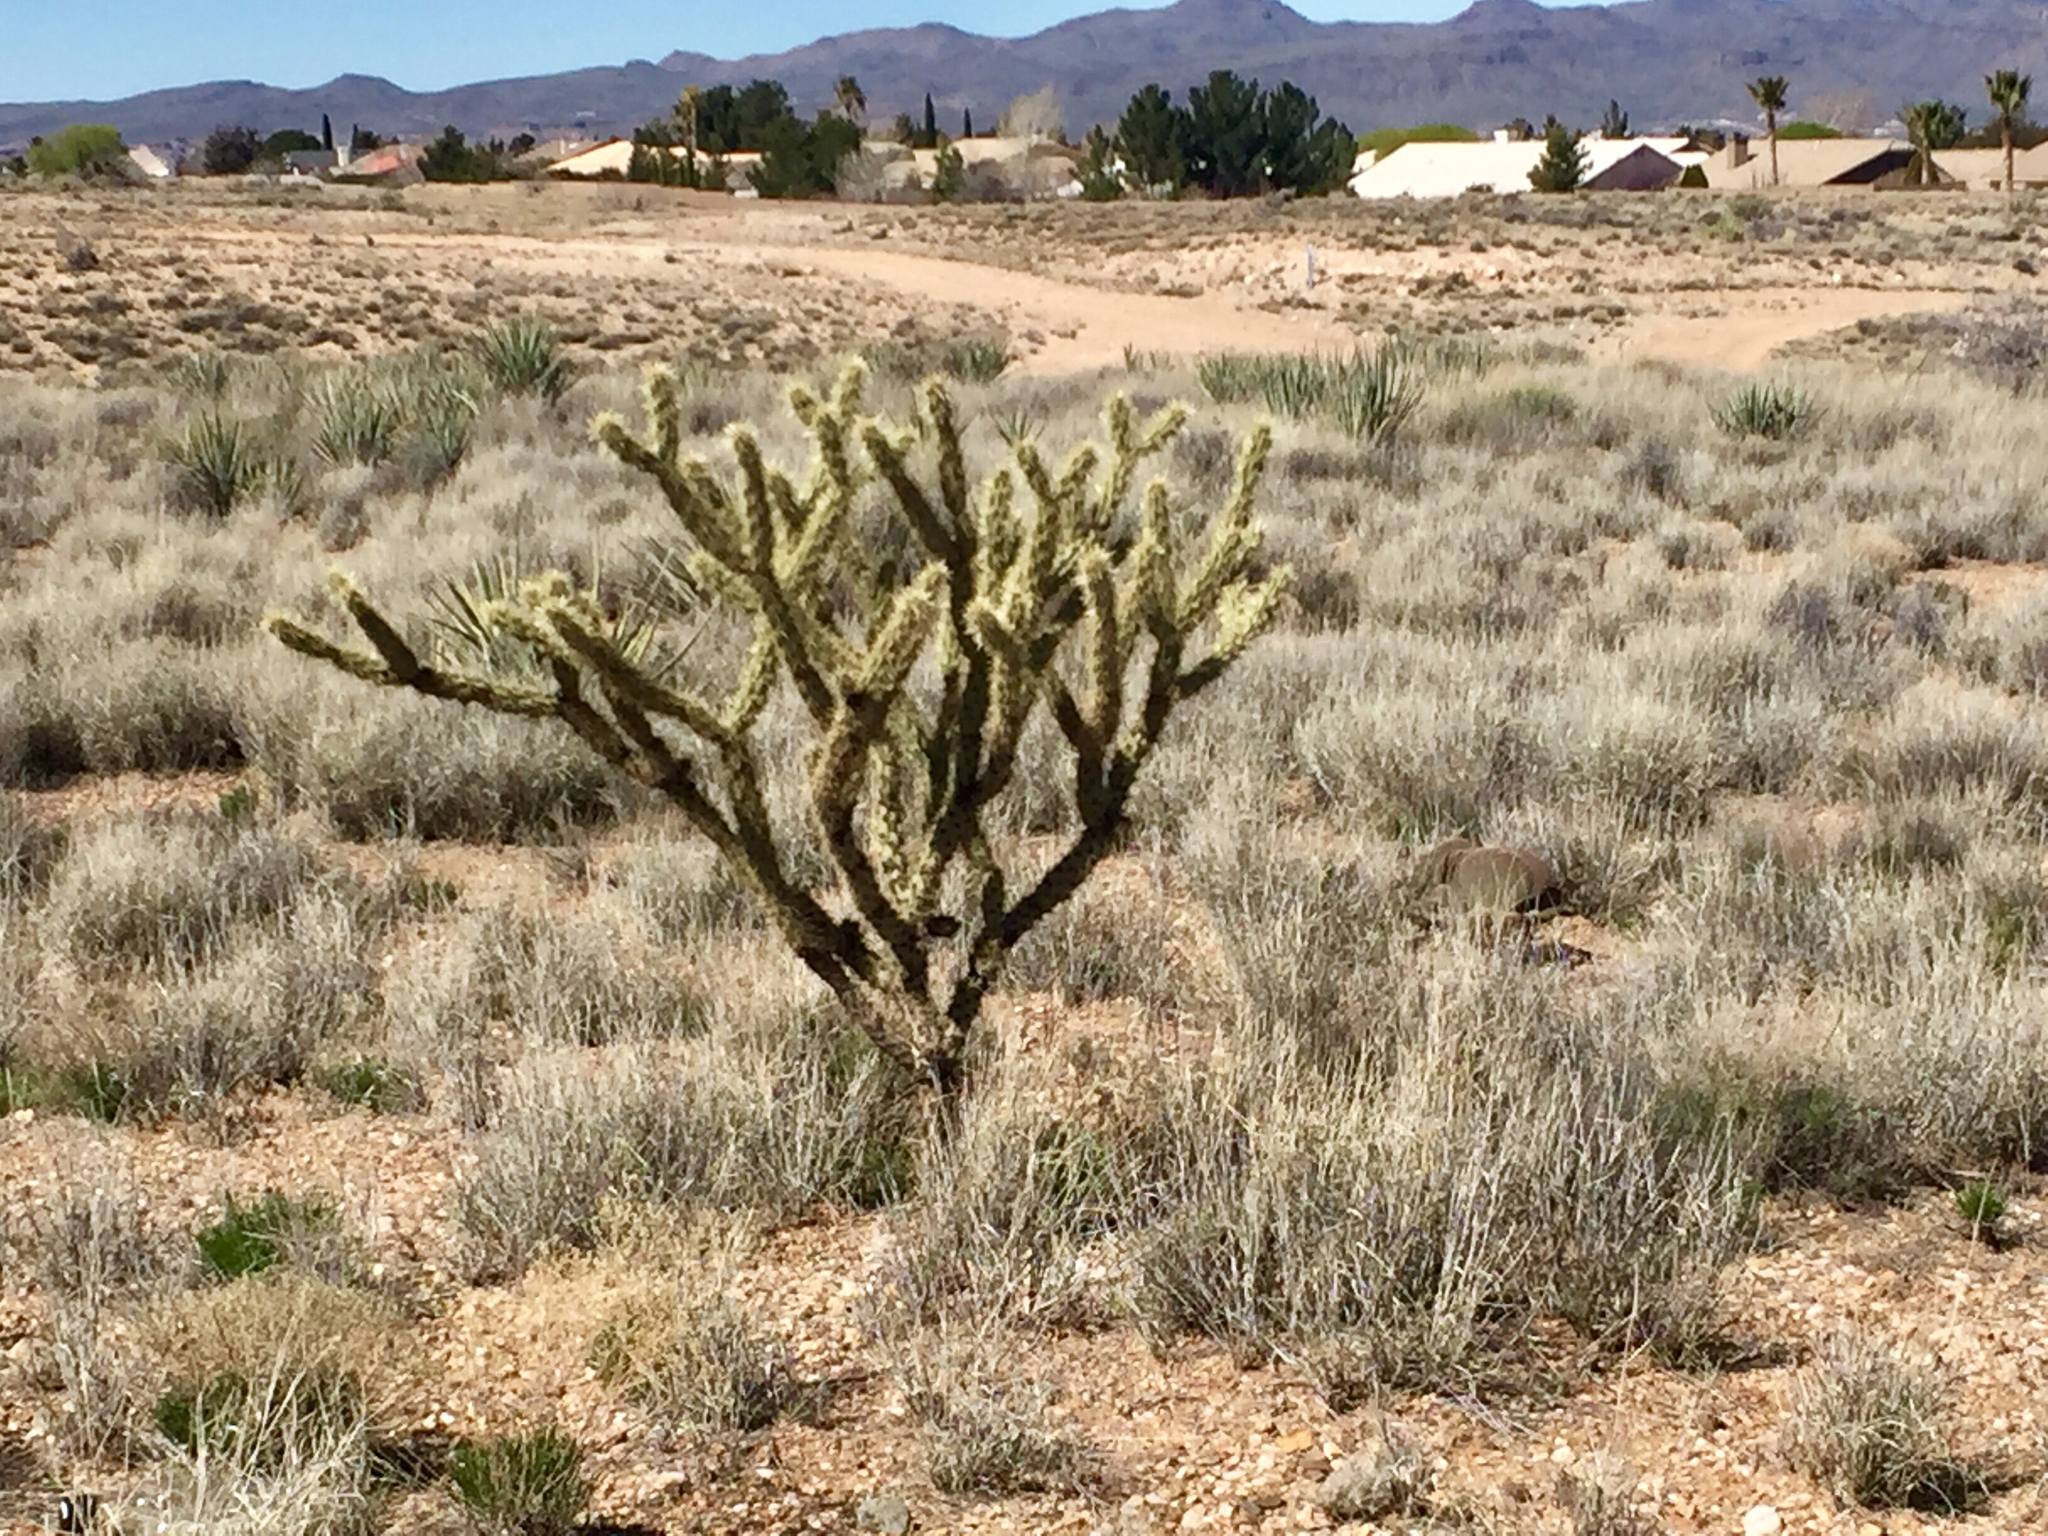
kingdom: Plantae
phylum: Tracheophyta
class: Magnoliopsida
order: Caryophyllales
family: Cactaceae
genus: Cylindropuntia
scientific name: Cylindropuntia acanthocarpa
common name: Buckhorn cholla
